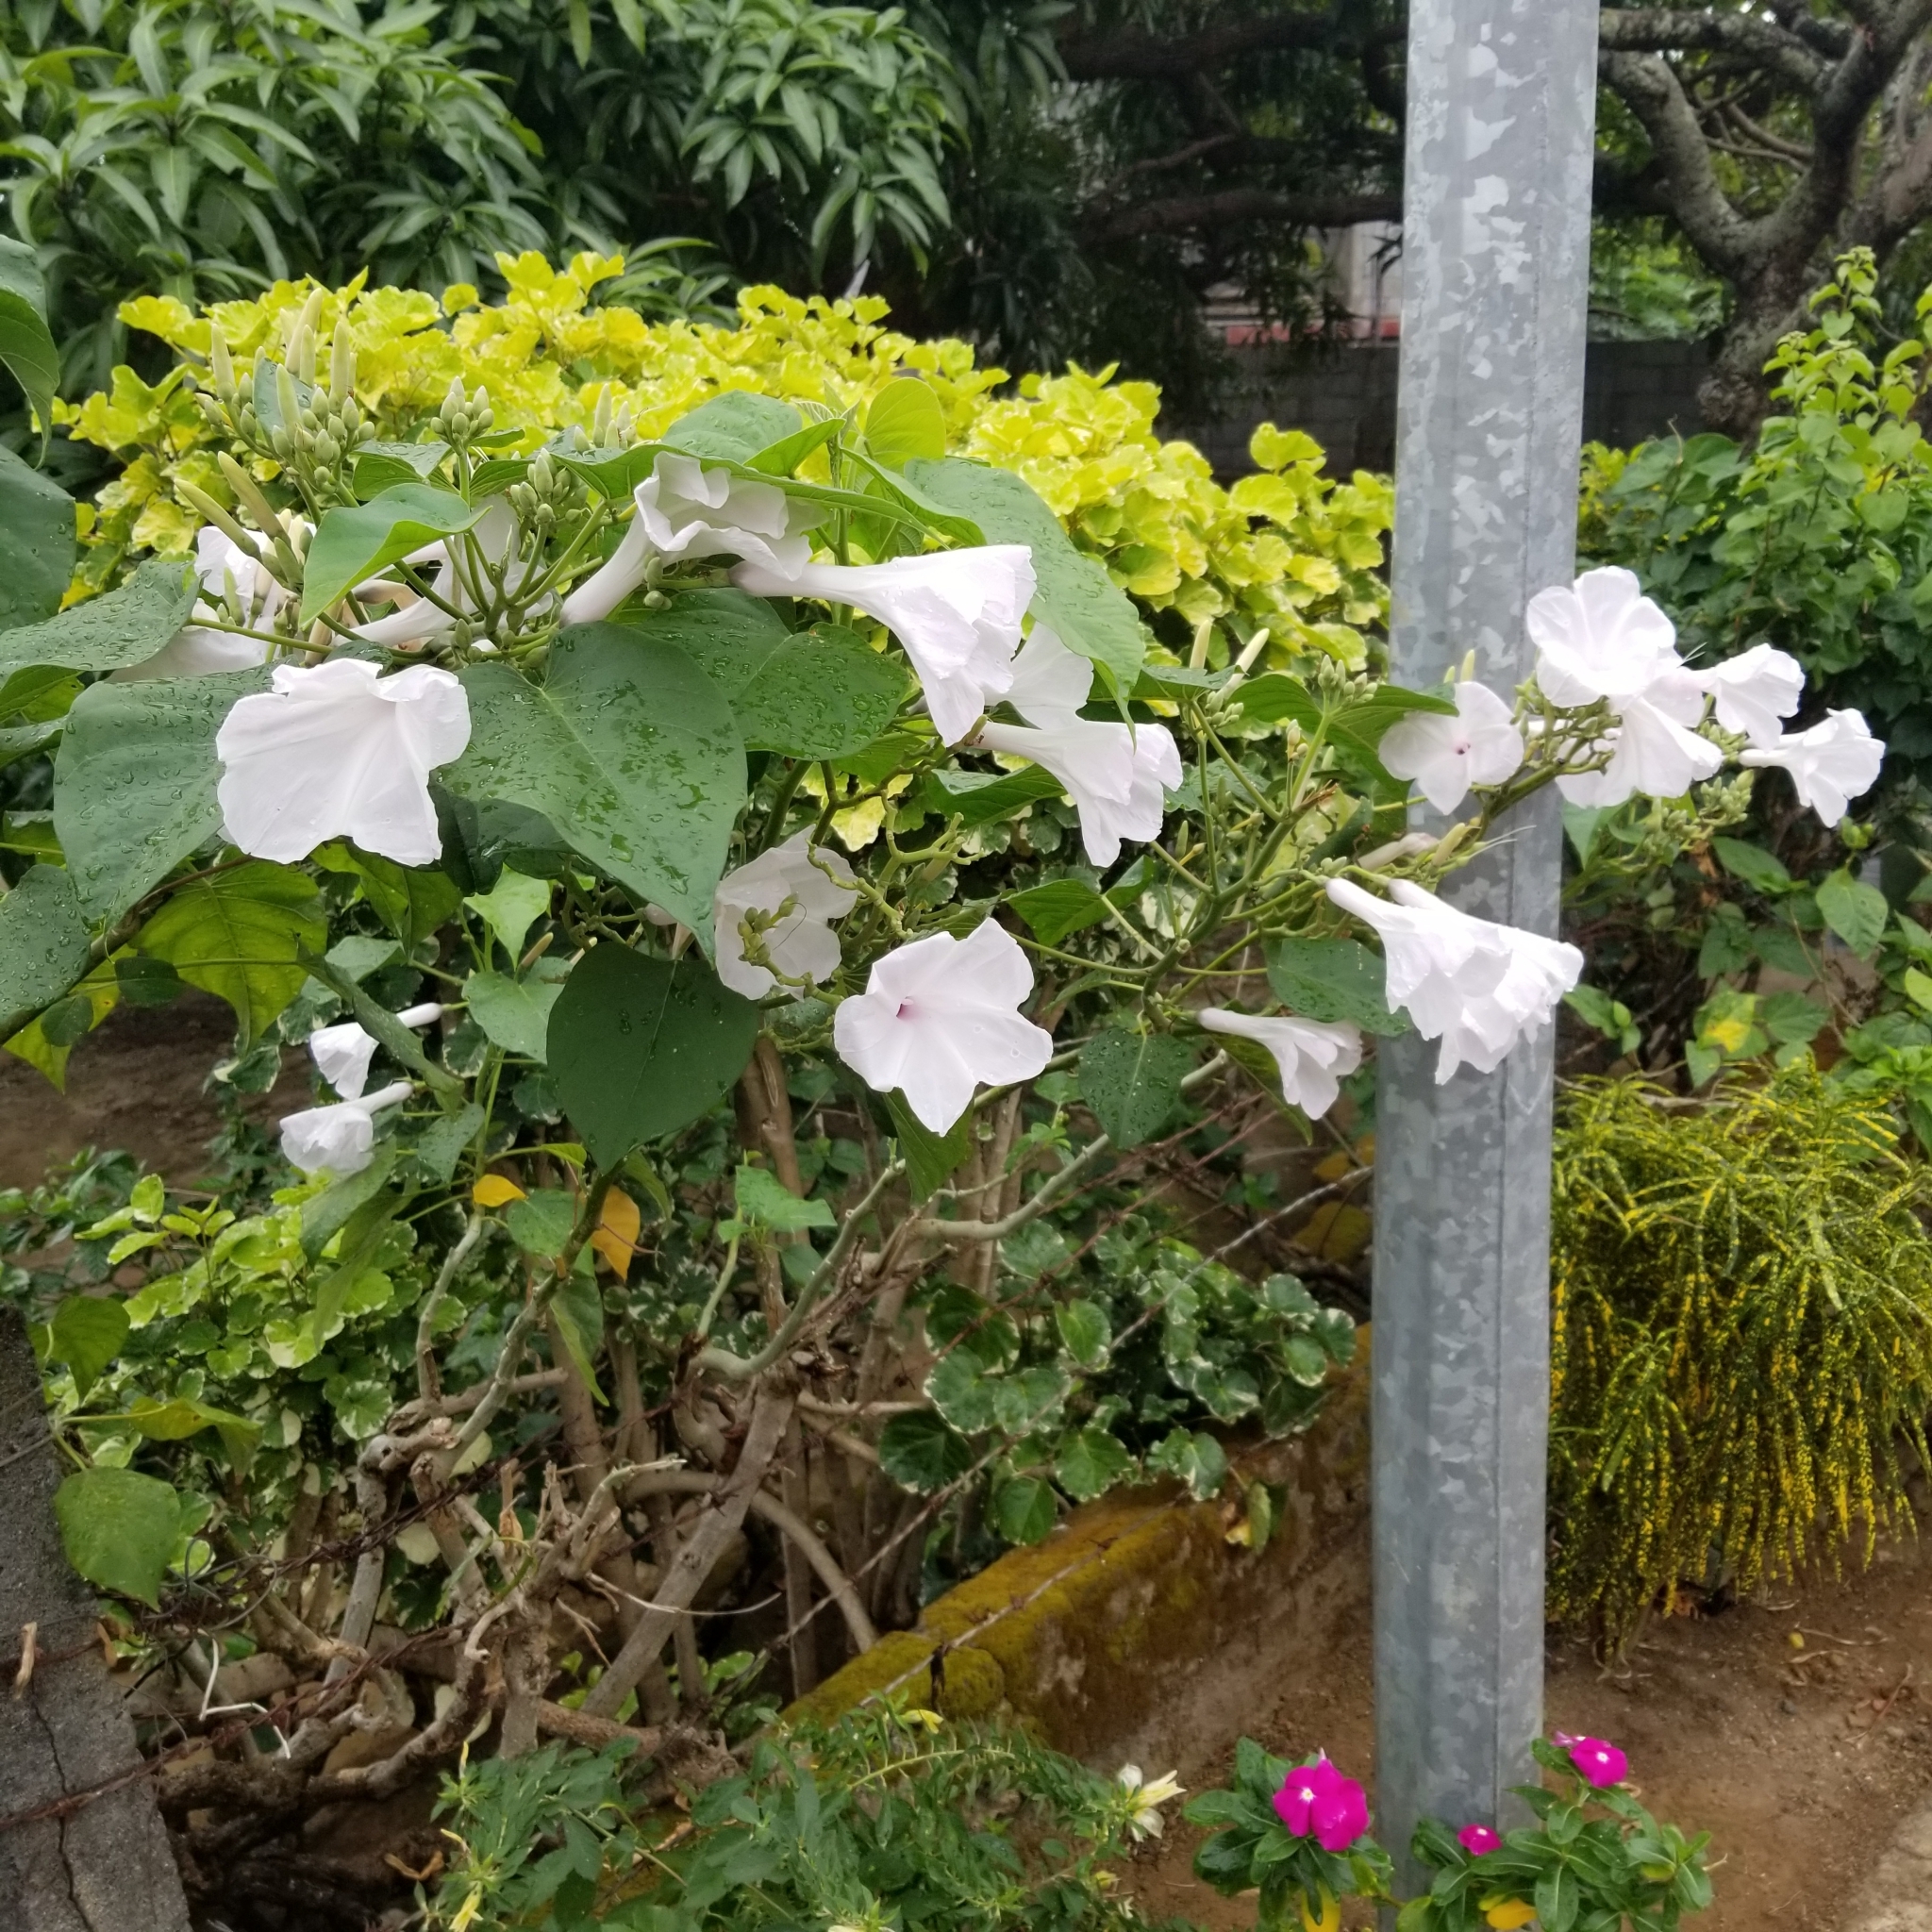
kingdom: Plantae
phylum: Tracheophyta
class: Magnoliopsida
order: Solanales
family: Convolvulaceae
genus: Ipomoea
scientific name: Ipomoea carnea
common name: Morning-glory
